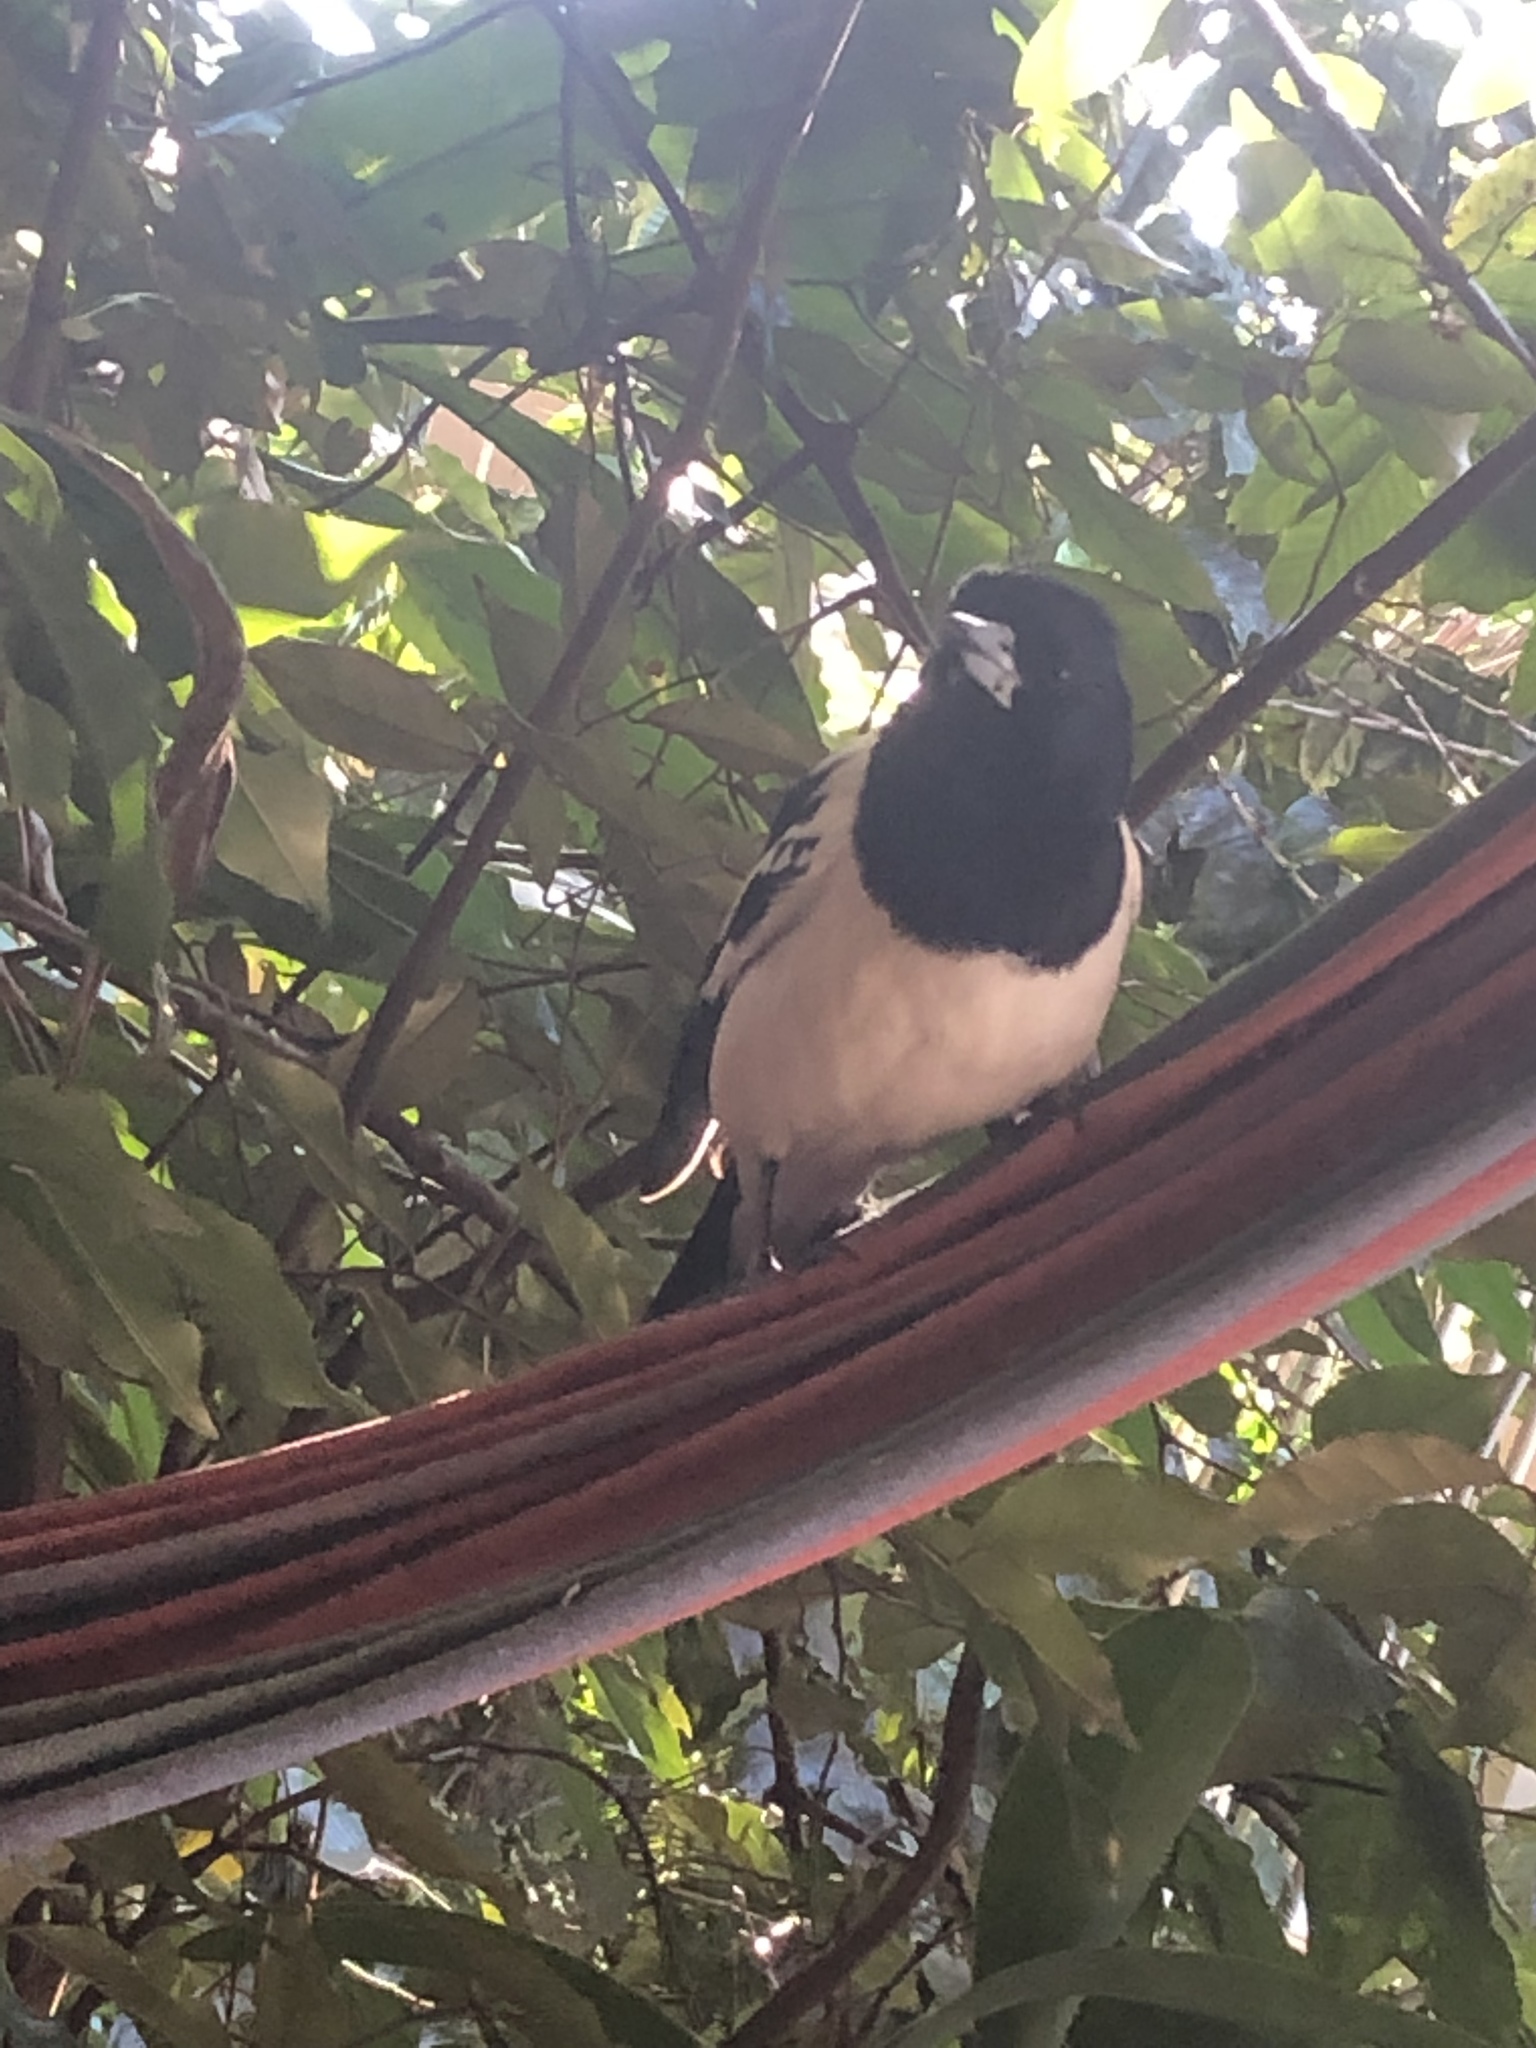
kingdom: Animalia
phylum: Chordata
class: Aves
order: Passeriformes
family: Cracticidae
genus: Cracticus
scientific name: Cracticus nigrogularis
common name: Pied butcherbird
